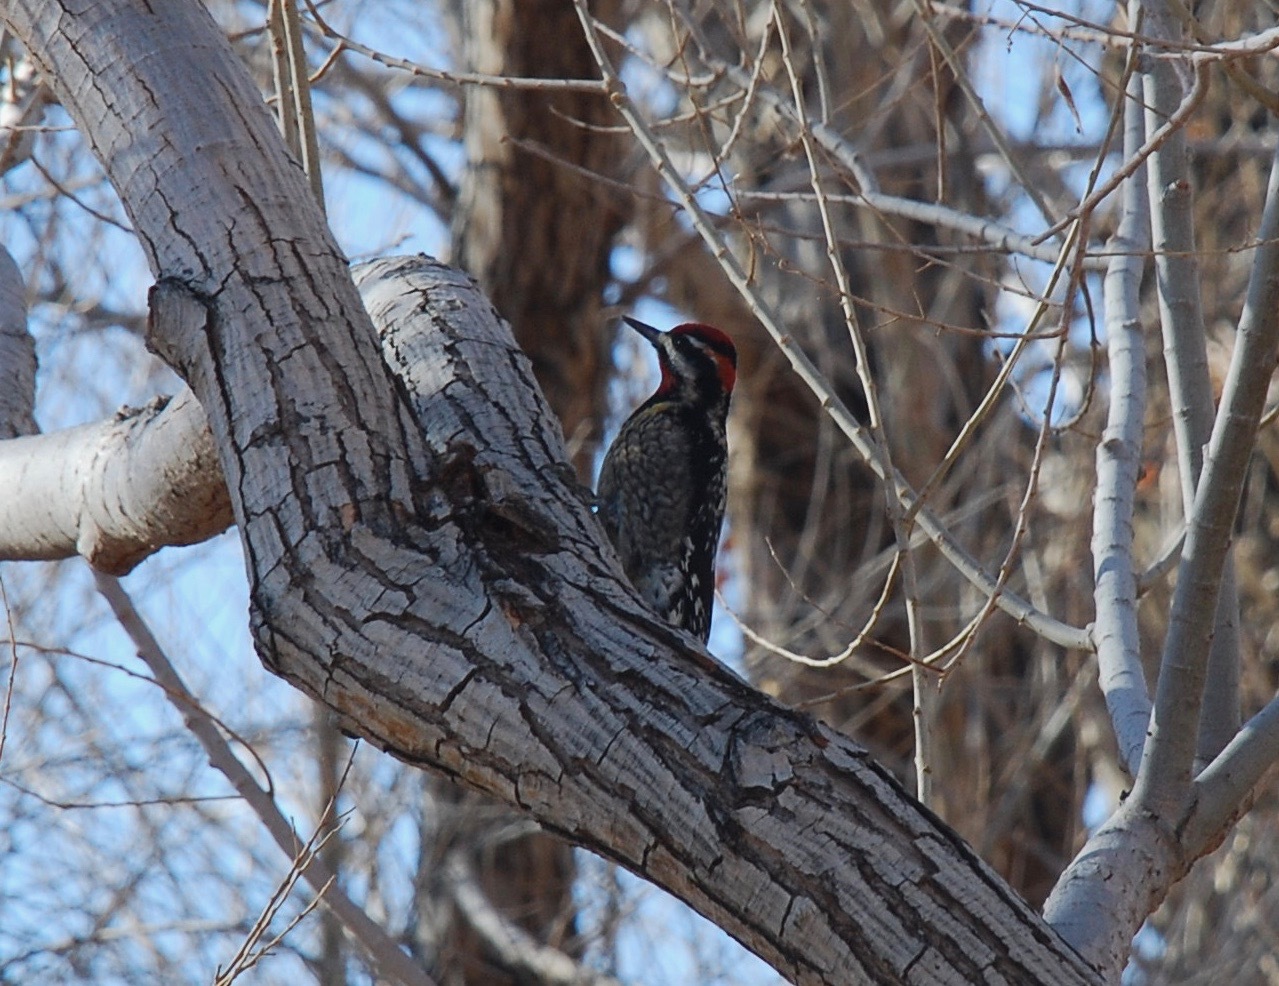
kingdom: Animalia
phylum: Chordata
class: Aves
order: Piciformes
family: Picidae
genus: Sphyrapicus
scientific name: Sphyrapicus nuchalis
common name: Red-naped sapsucker
